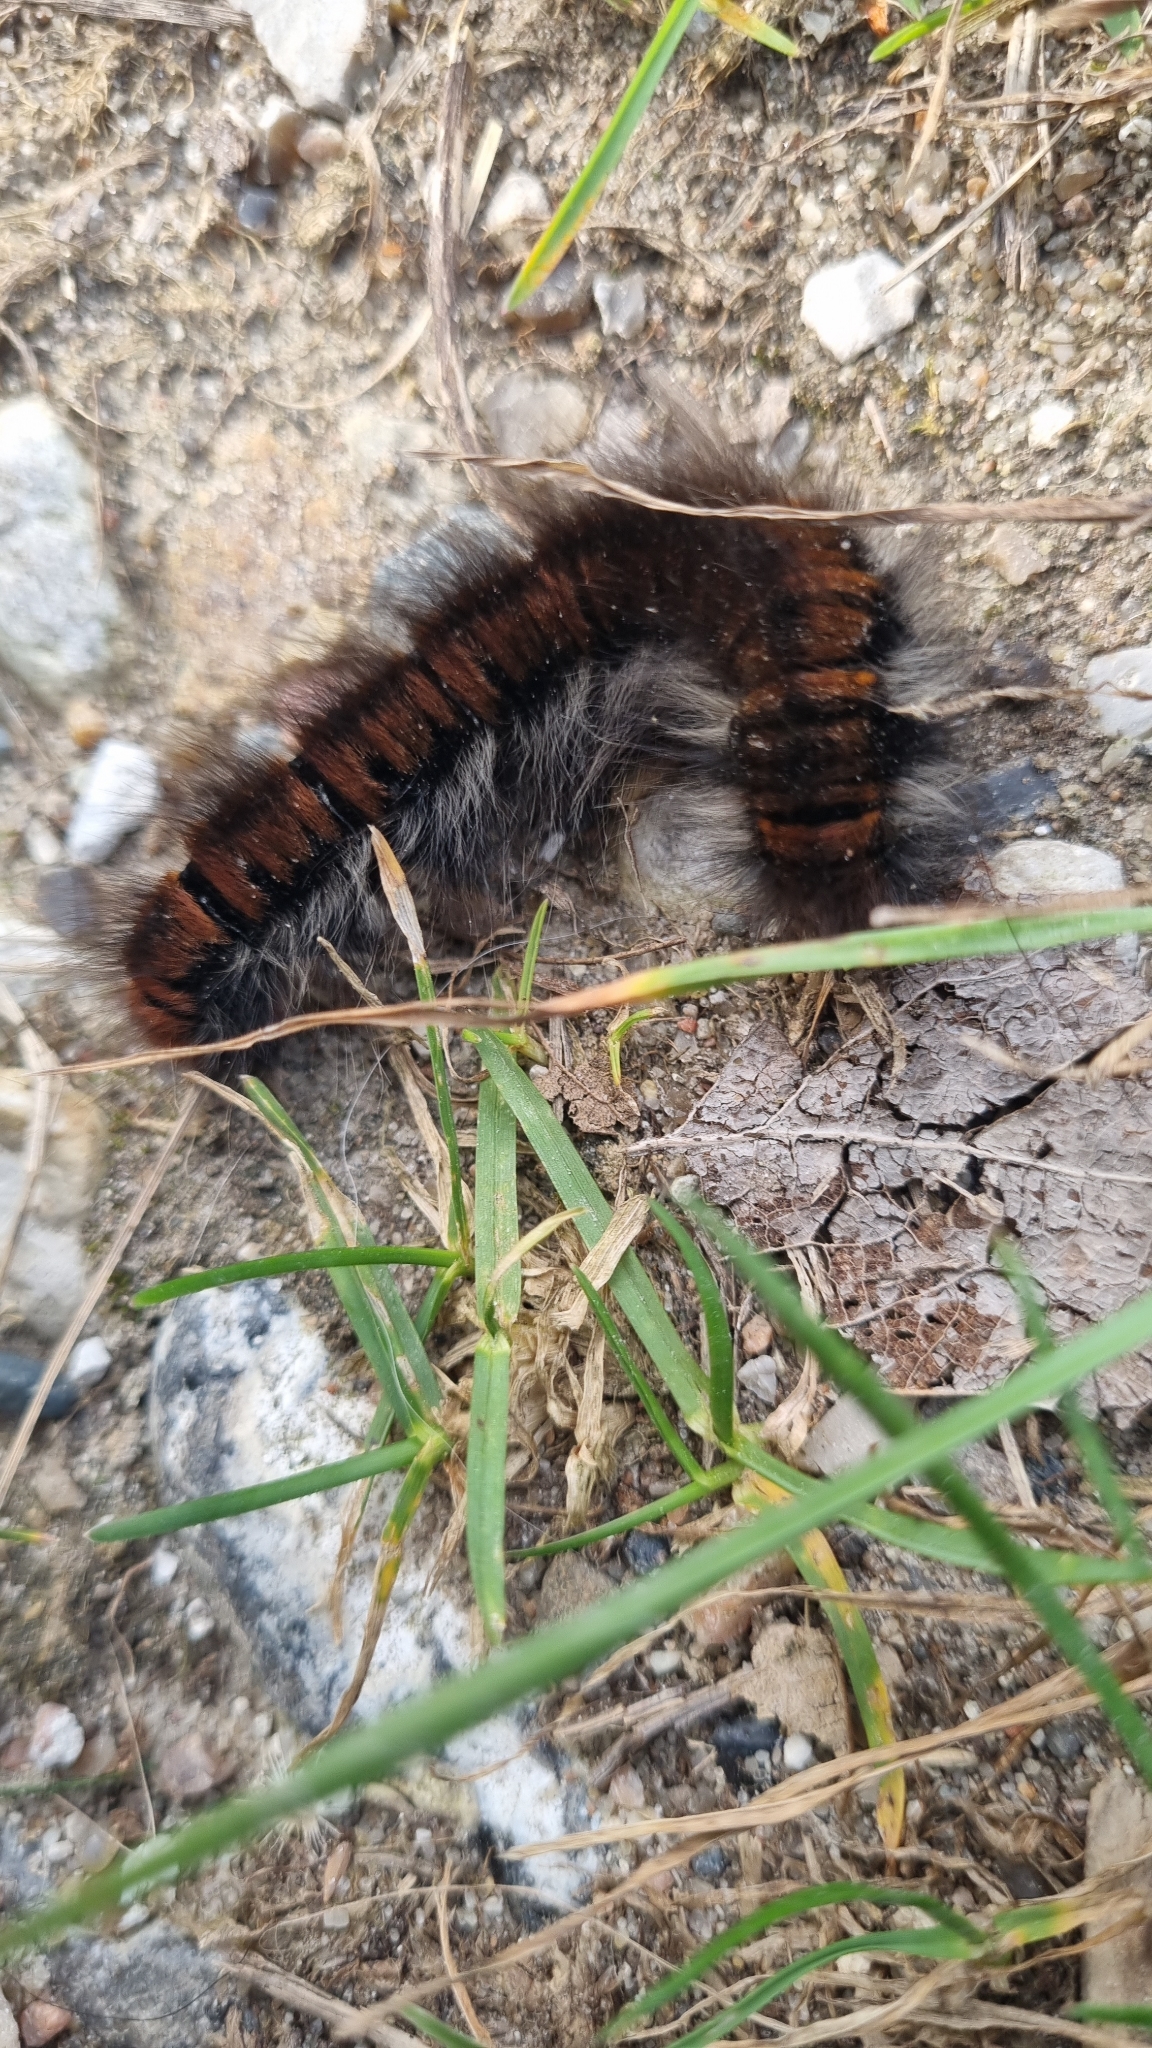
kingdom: Animalia
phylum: Arthropoda
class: Insecta
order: Lepidoptera
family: Lasiocampidae
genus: Macrothylacia
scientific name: Macrothylacia rubi
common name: Fox moth
